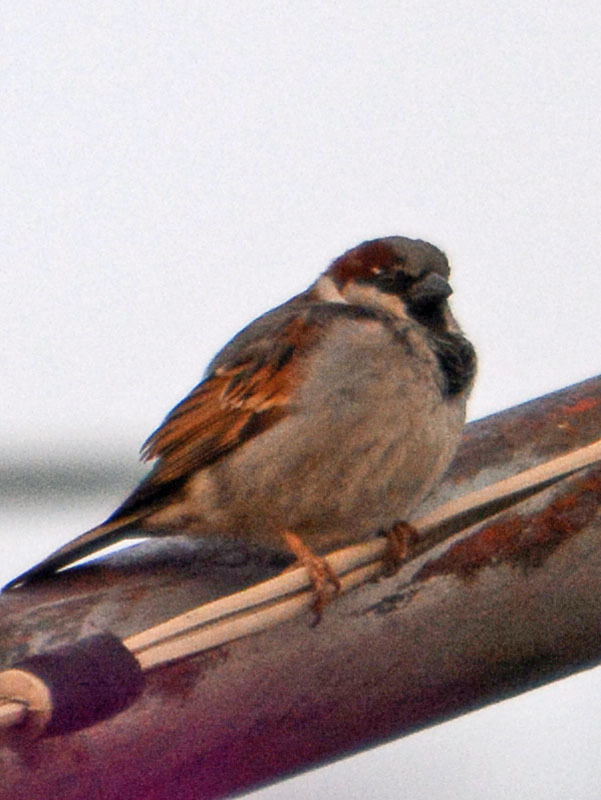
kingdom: Animalia
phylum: Chordata
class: Aves
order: Passeriformes
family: Passeridae
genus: Passer
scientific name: Passer domesticus
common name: House sparrow
